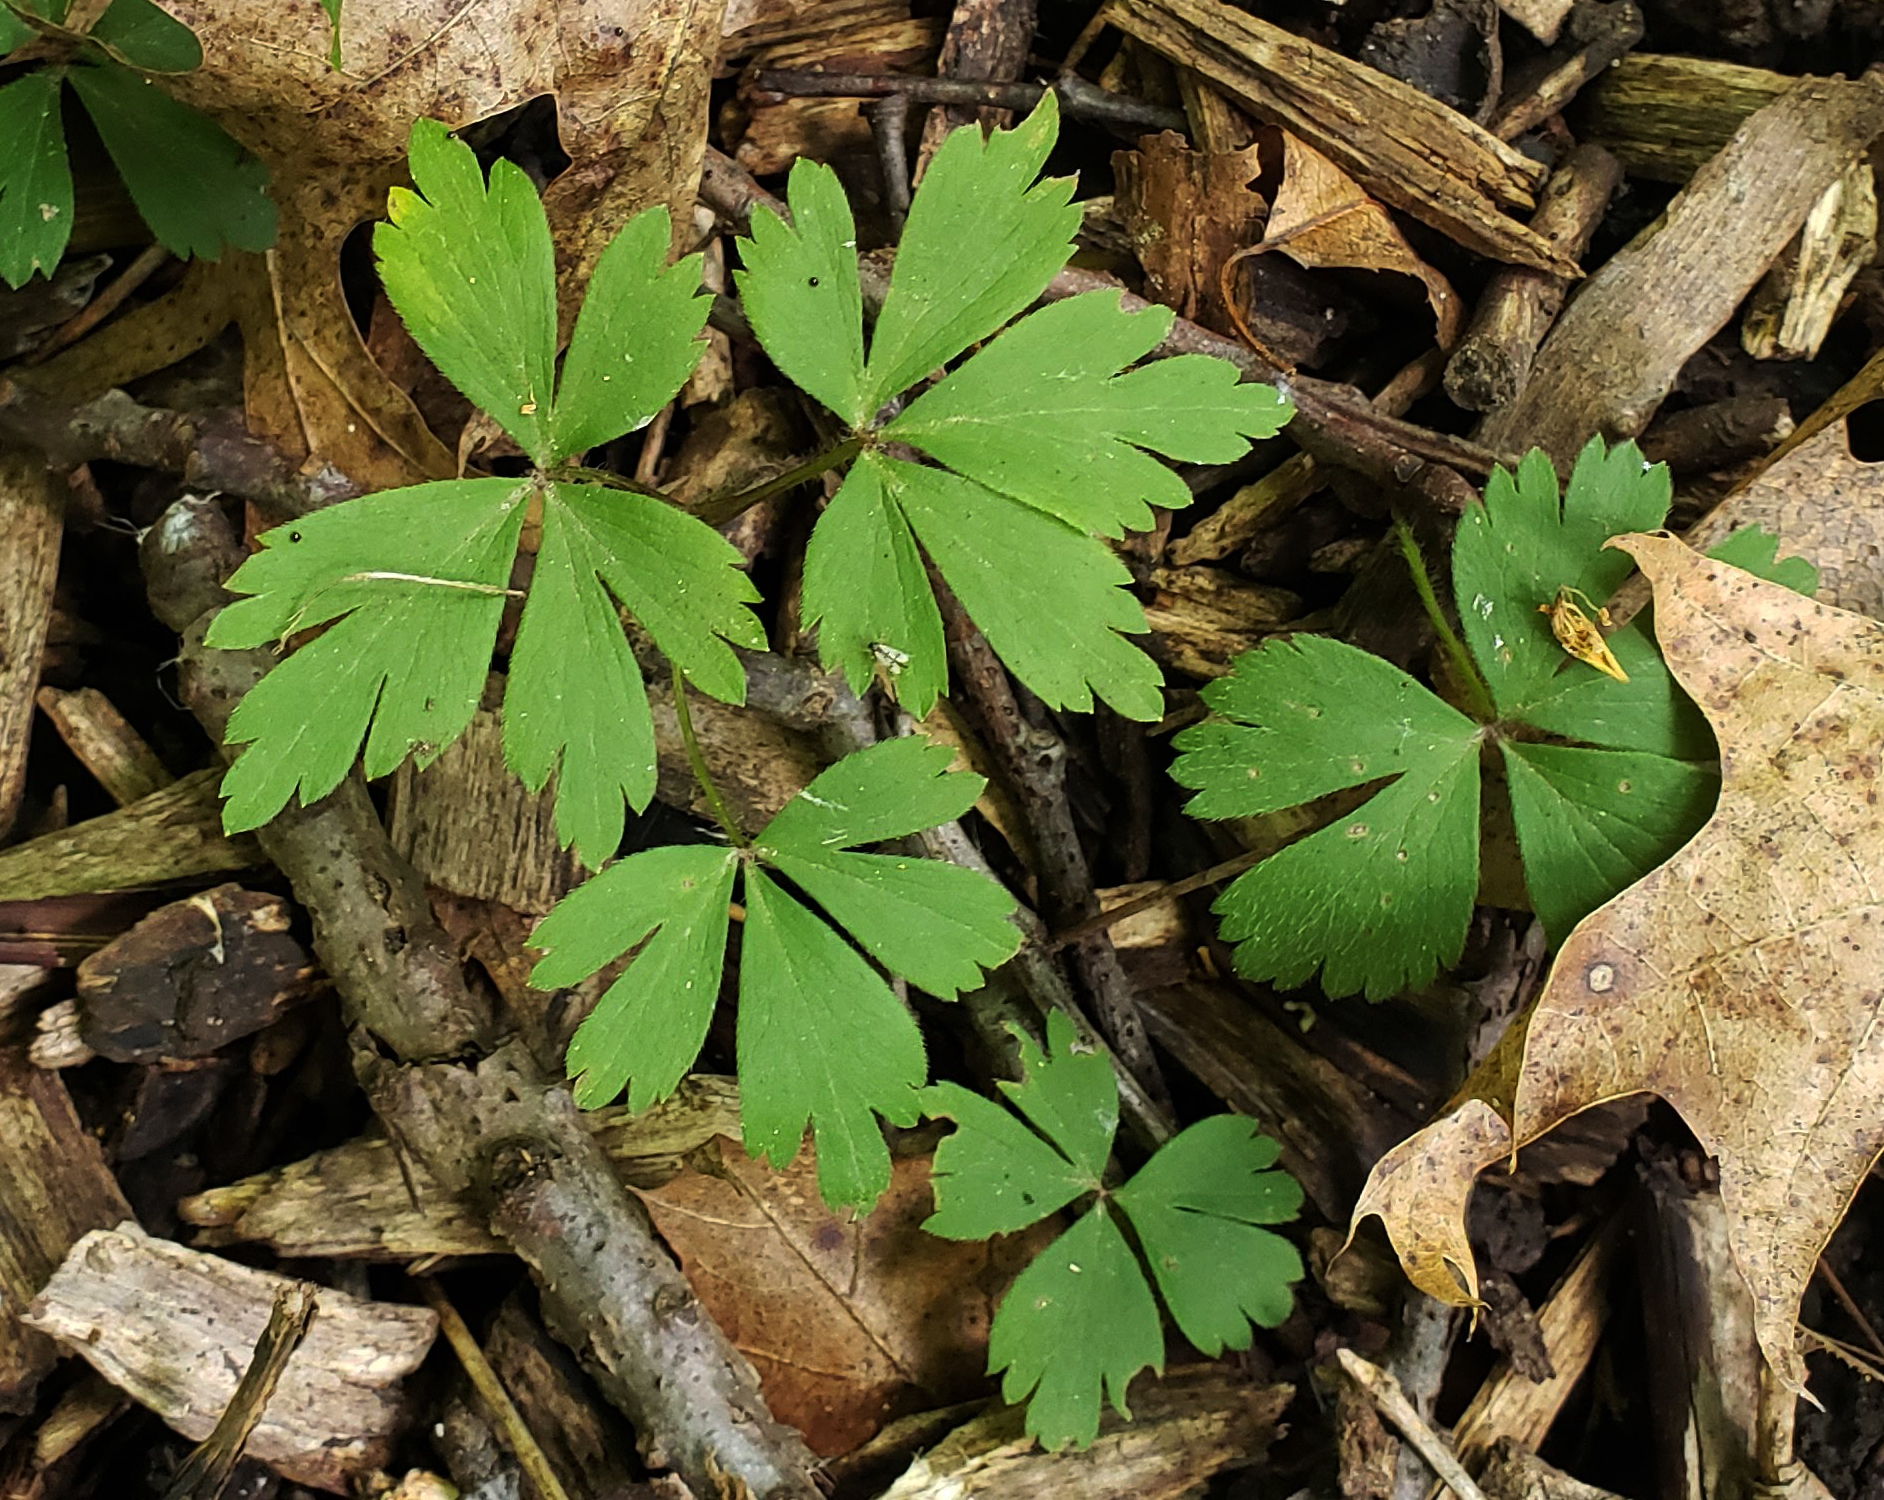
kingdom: Plantae
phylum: Tracheophyta
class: Magnoliopsida
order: Ranunculales
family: Ranunculaceae
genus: Anemone
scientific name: Anemone quinquefolia
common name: Wood anemone
